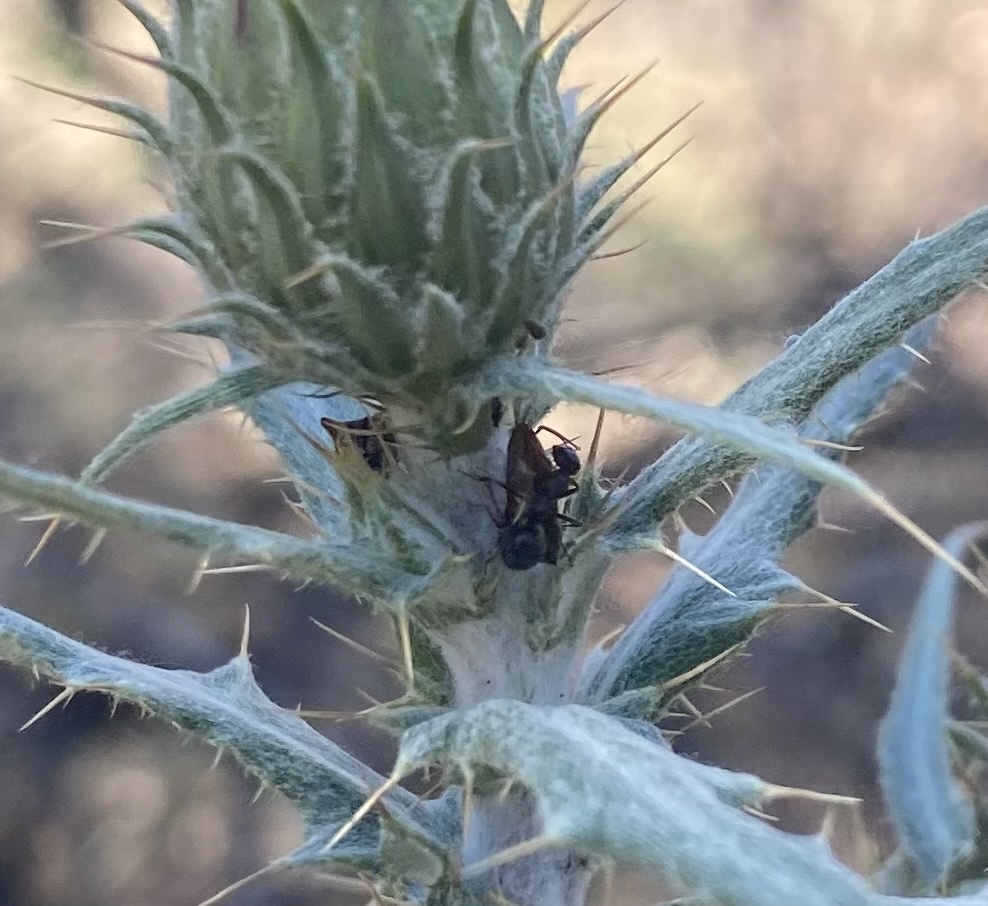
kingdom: Animalia
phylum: Arthropoda
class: Insecta
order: Hemiptera
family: Membracidae
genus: Publilia
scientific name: Publilia porrecta
